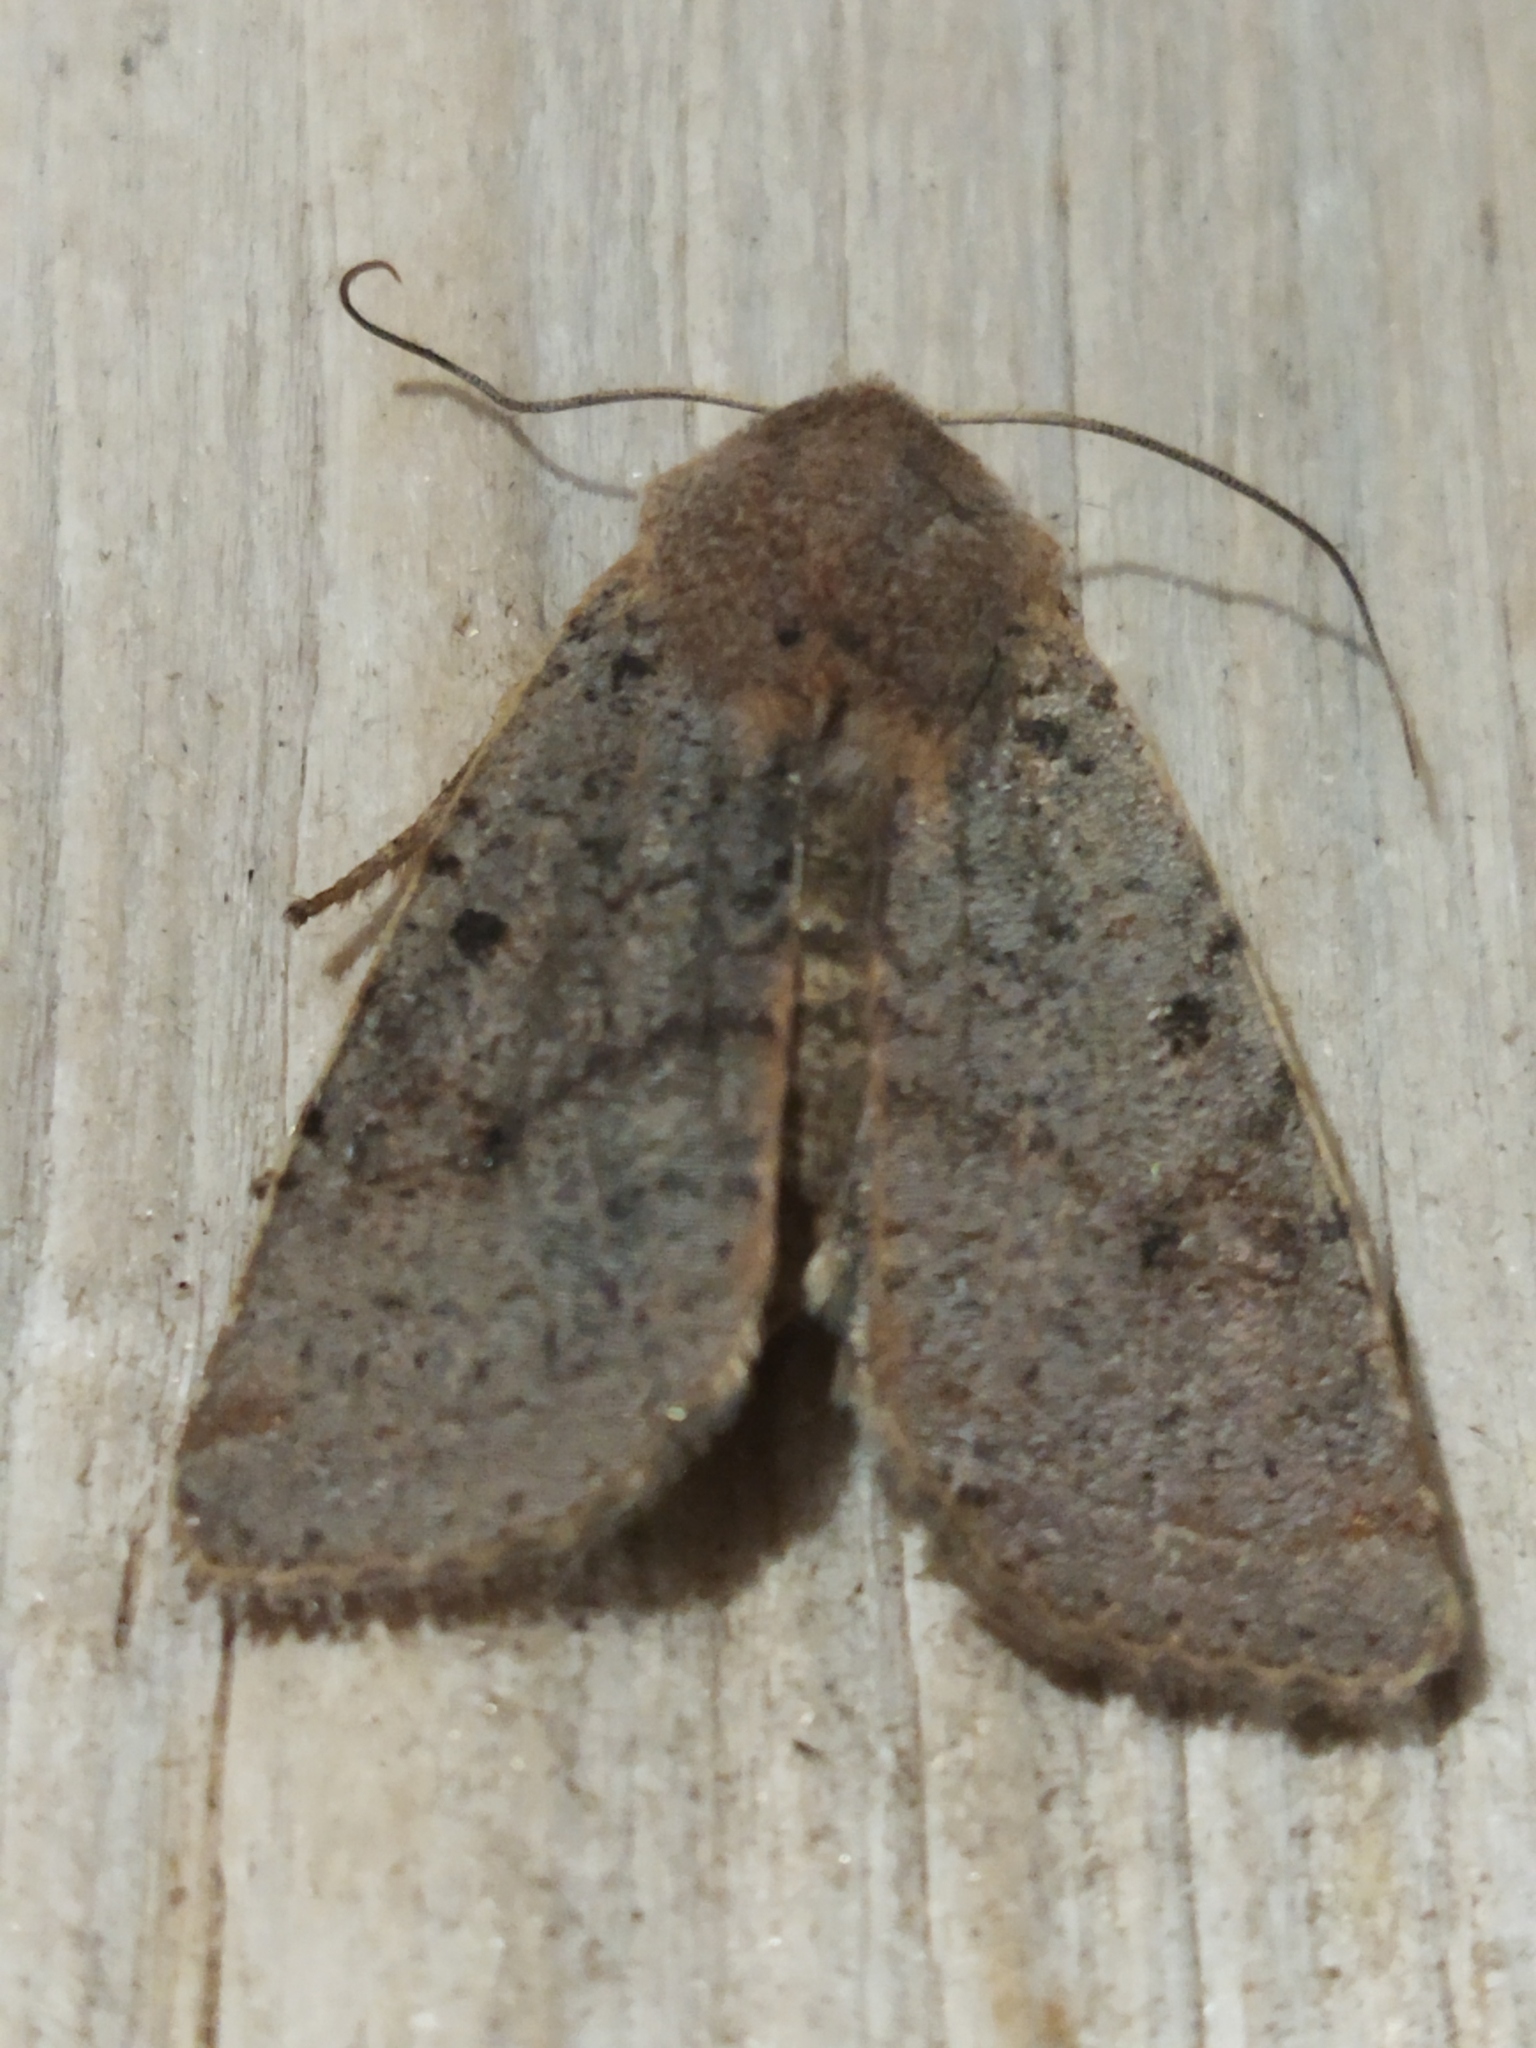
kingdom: Animalia
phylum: Arthropoda
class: Insecta
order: Lepidoptera
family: Noctuidae
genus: Agrochola
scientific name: Agrochola lychnidis
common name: Beaded chestnut
